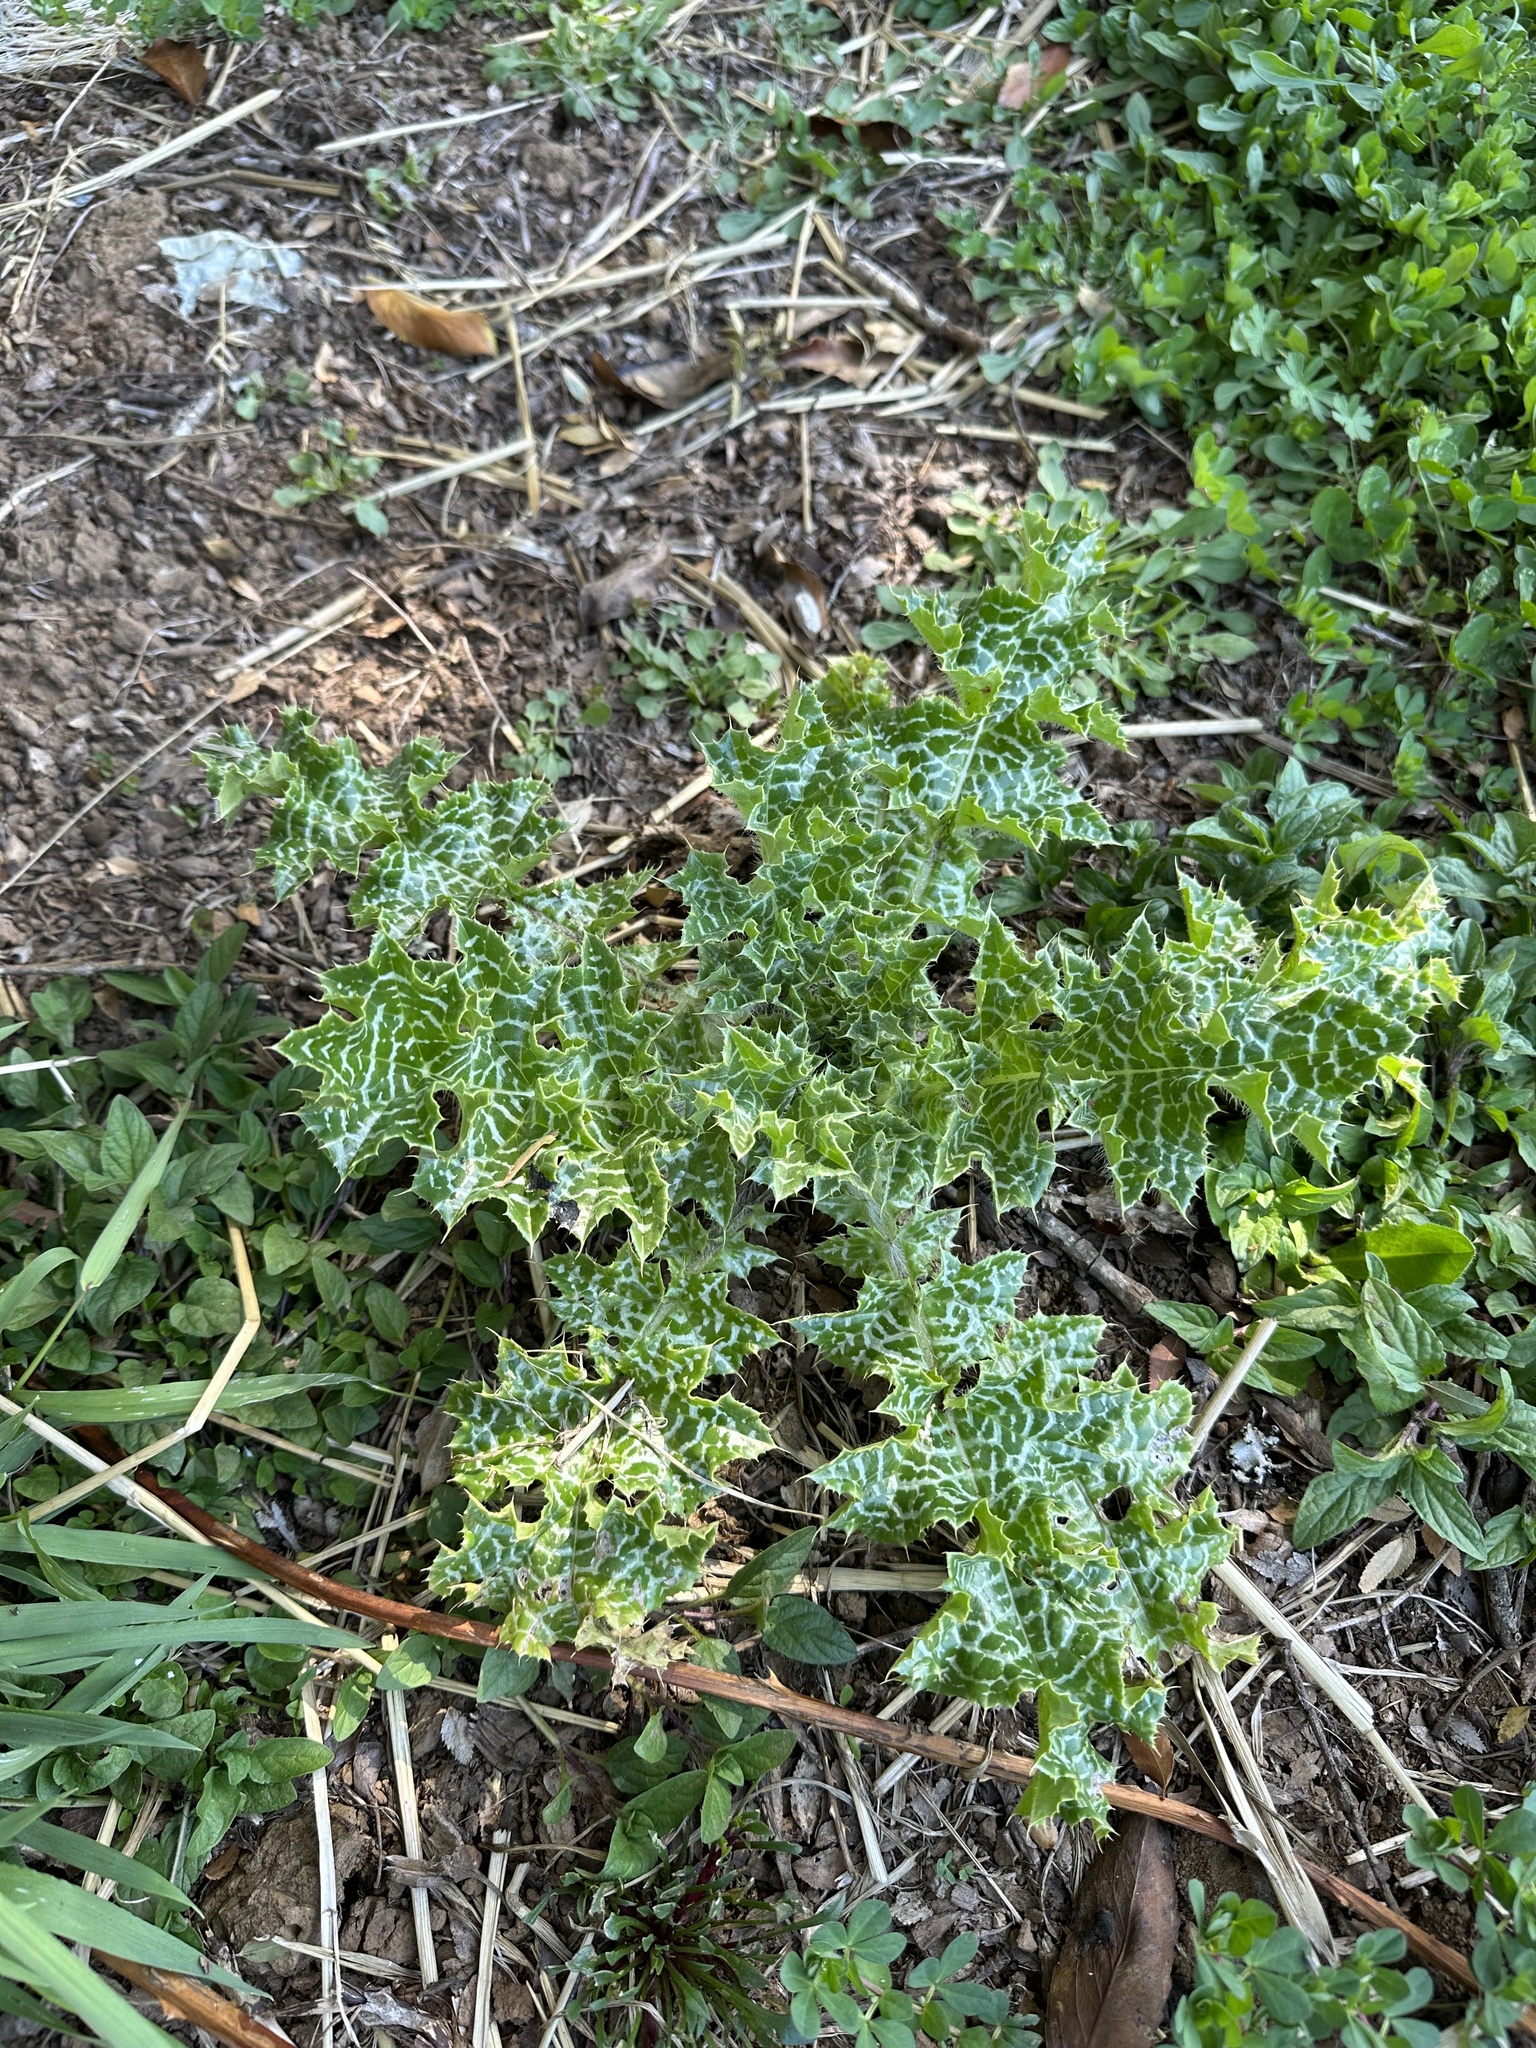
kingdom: Plantae
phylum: Tracheophyta
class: Magnoliopsida
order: Asterales
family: Asteraceae
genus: Silybum
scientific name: Silybum marianum
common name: Milk thistle
